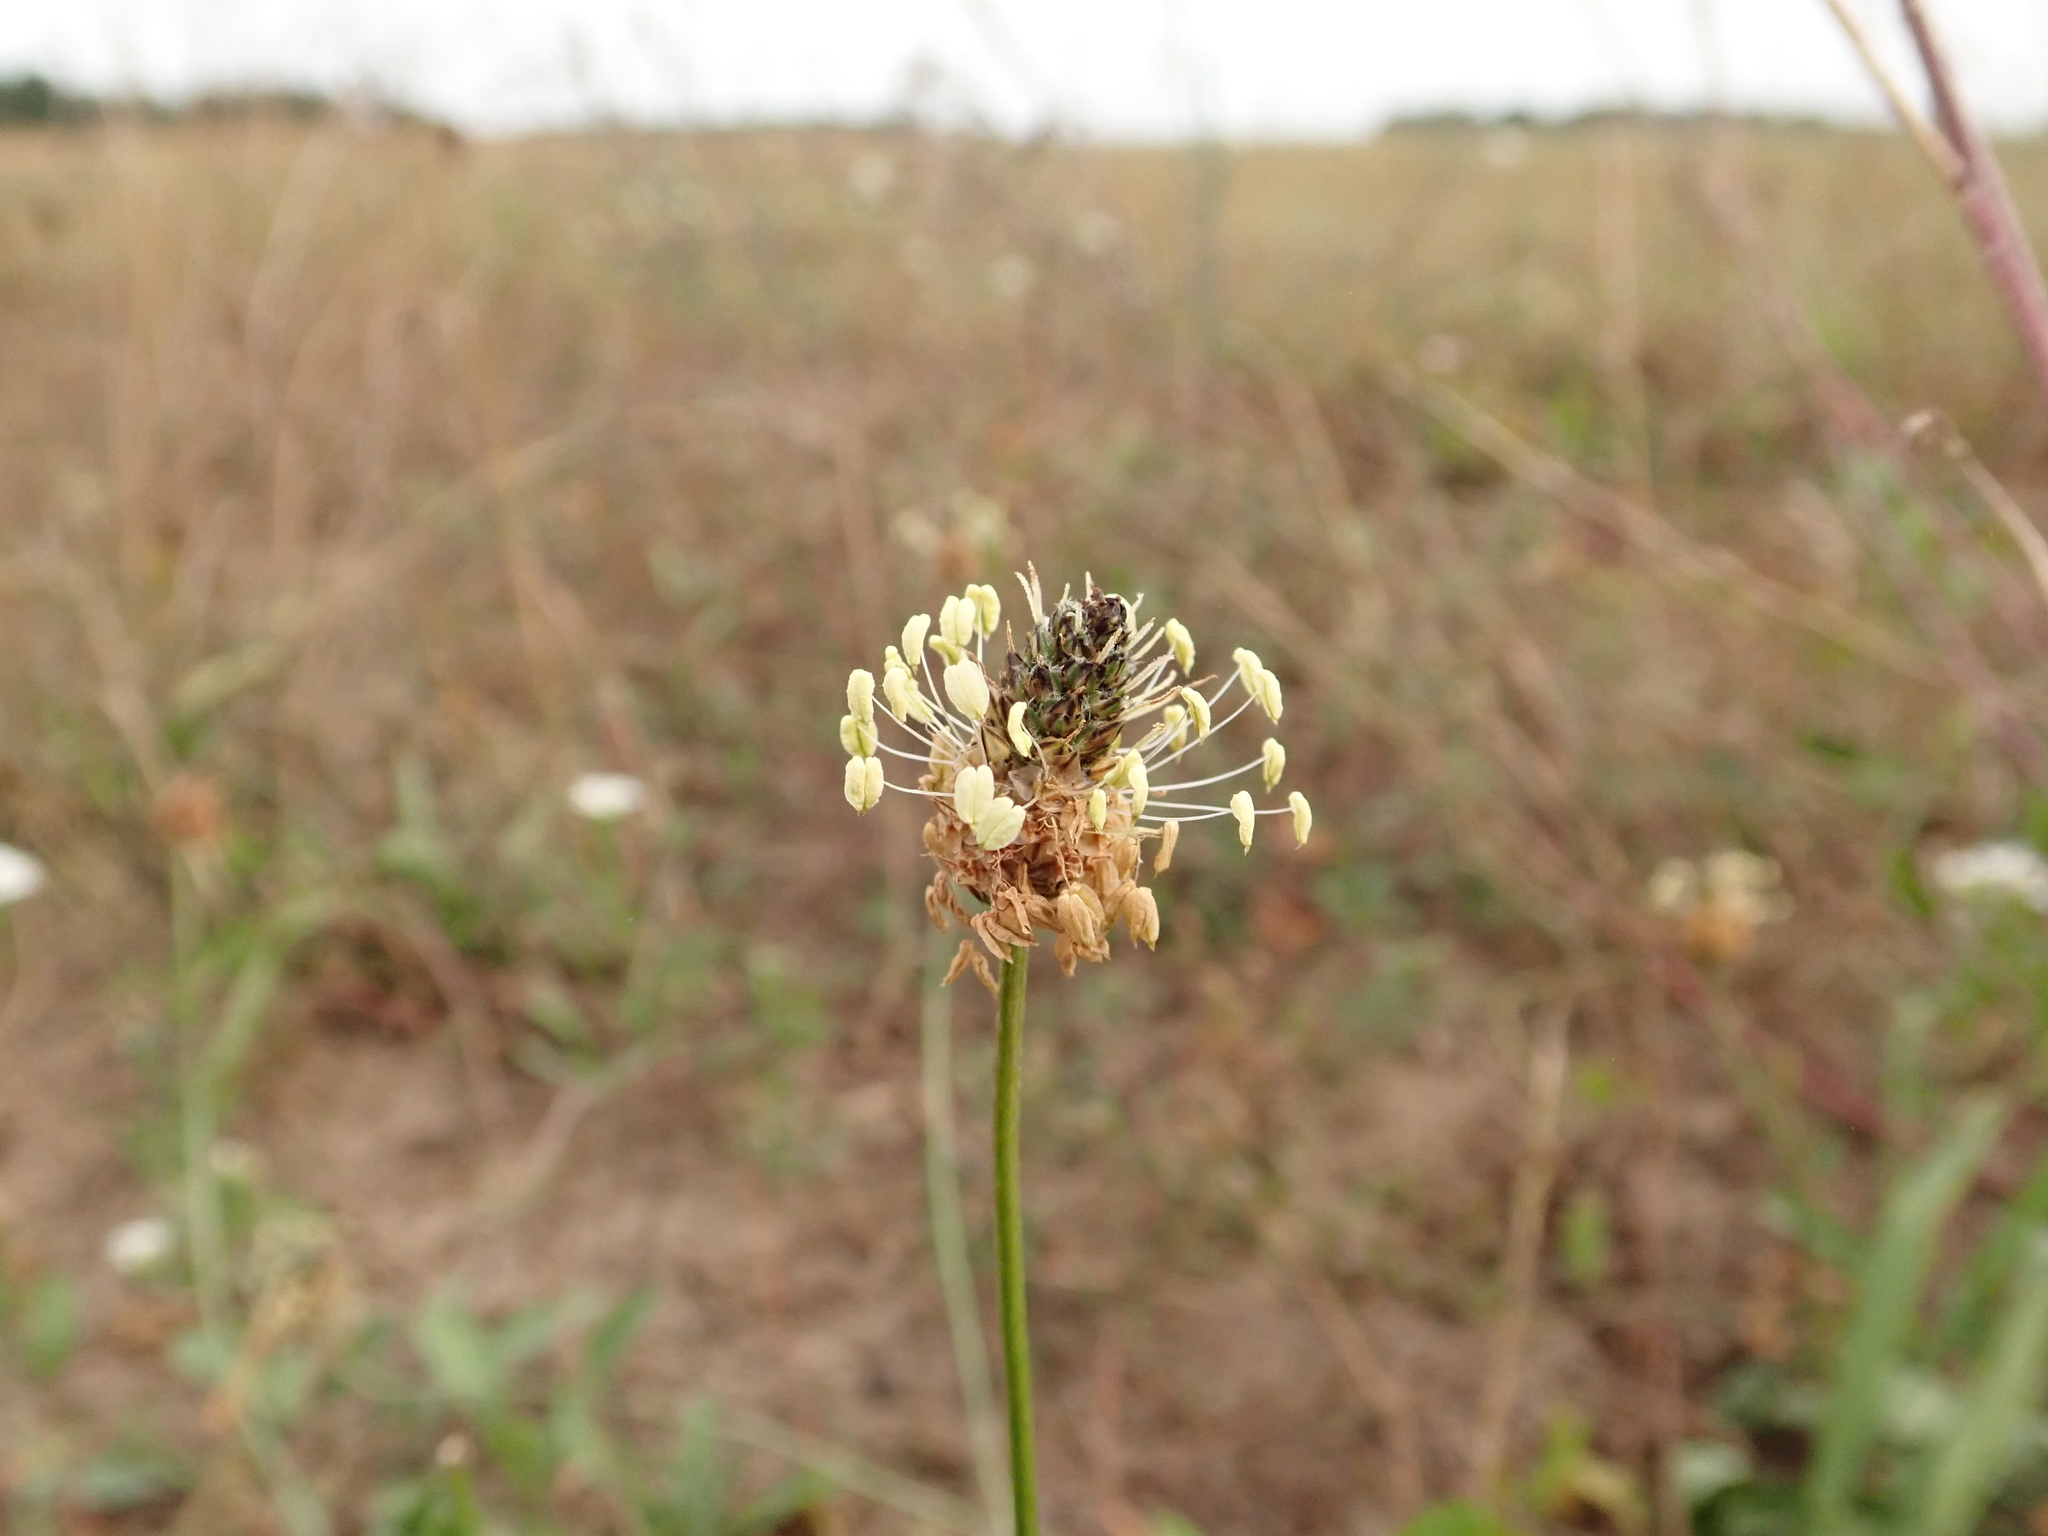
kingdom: Plantae
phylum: Tracheophyta
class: Magnoliopsida
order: Lamiales
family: Plantaginaceae
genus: Plantago
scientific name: Plantago lanceolata
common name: Ribwort plantain
